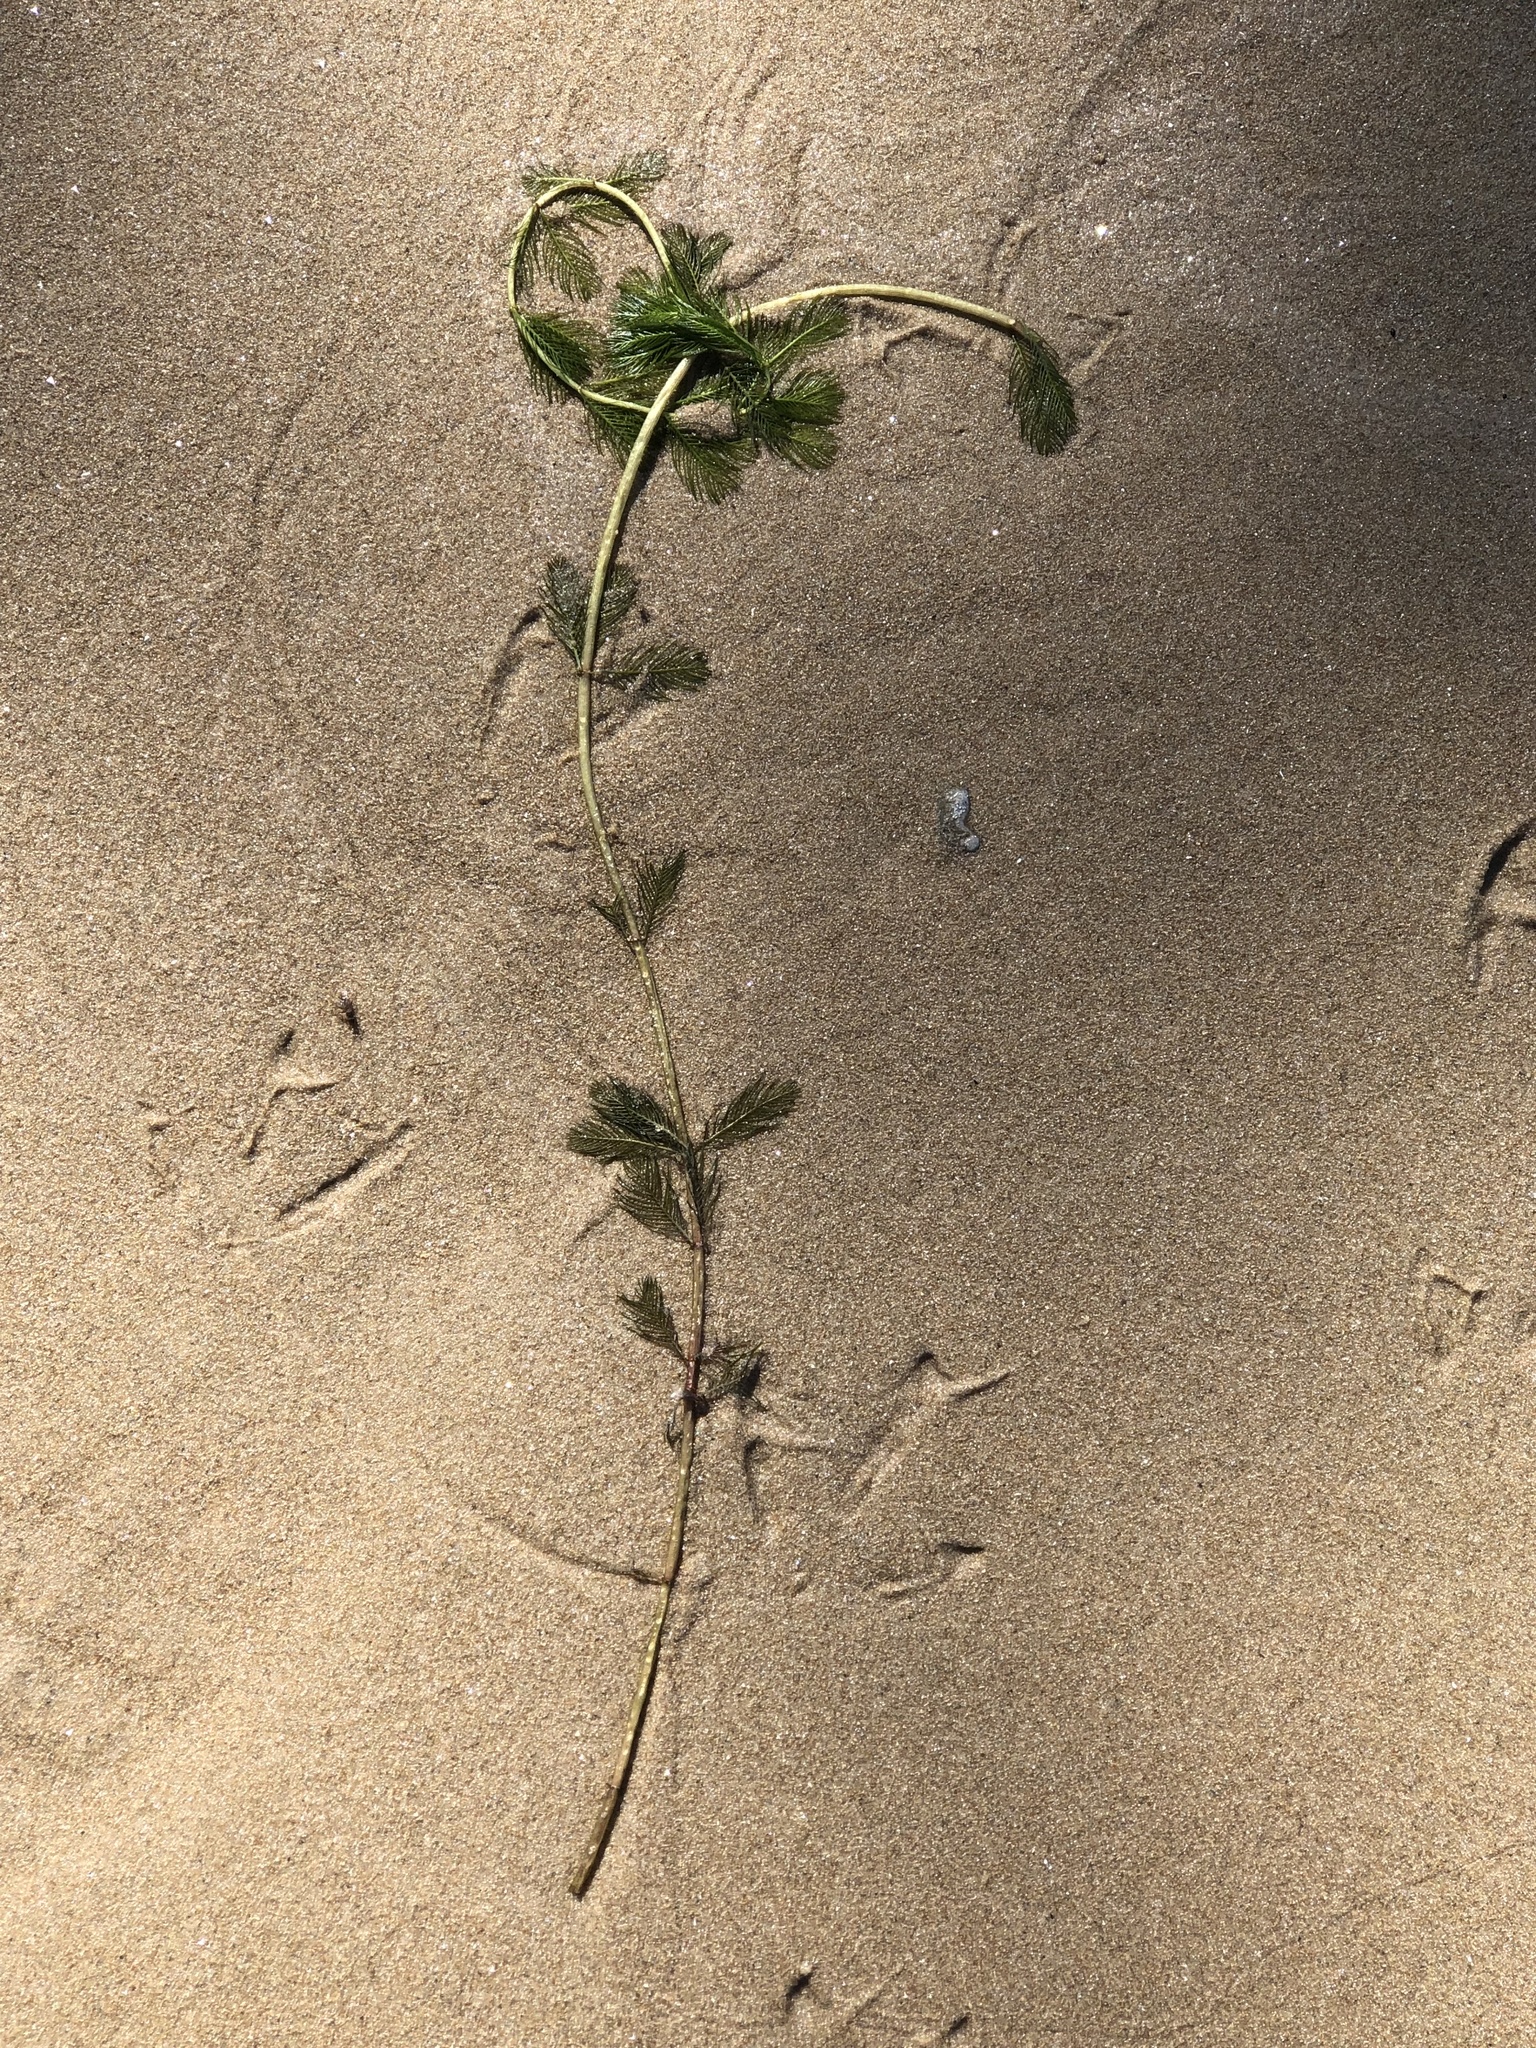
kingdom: Plantae
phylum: Tracheophyta
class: Magnoliopsida
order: Saxifragales
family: Haloragaceae
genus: Myriophyllum
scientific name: Myriophyllum spicatum
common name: Spiked water-milfoil
